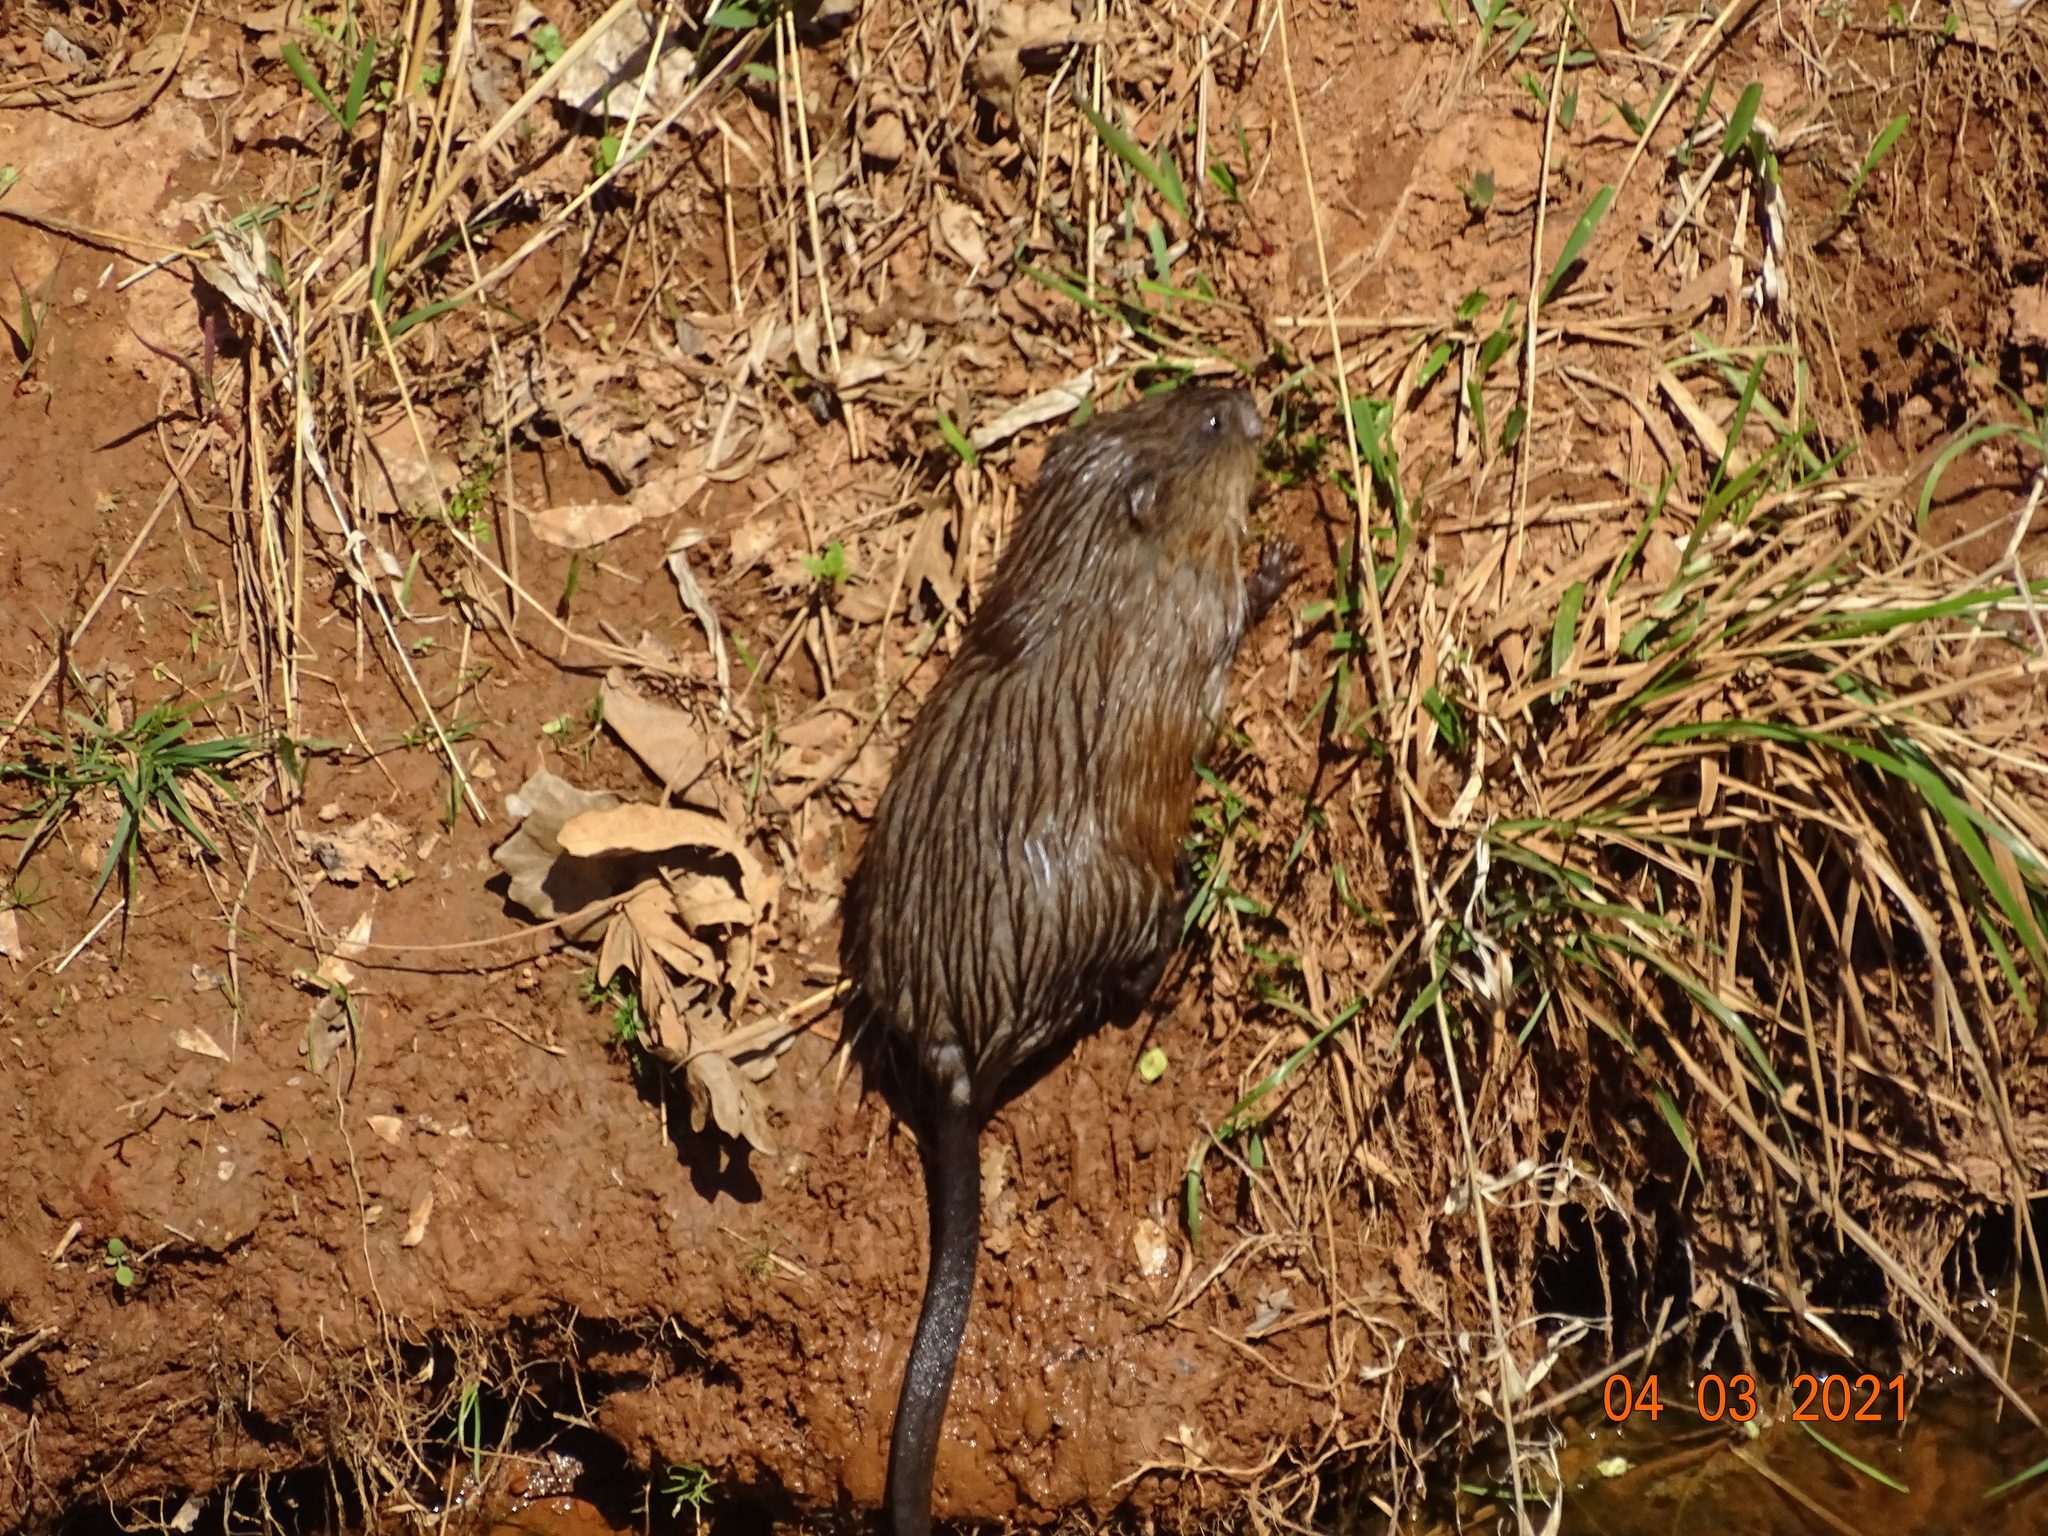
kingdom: Animalia
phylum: Chordata
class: Mammalia
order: Rodentia
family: Cricetidae
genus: Ondatra
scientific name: Ondatra zibethicus
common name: Muskrat
